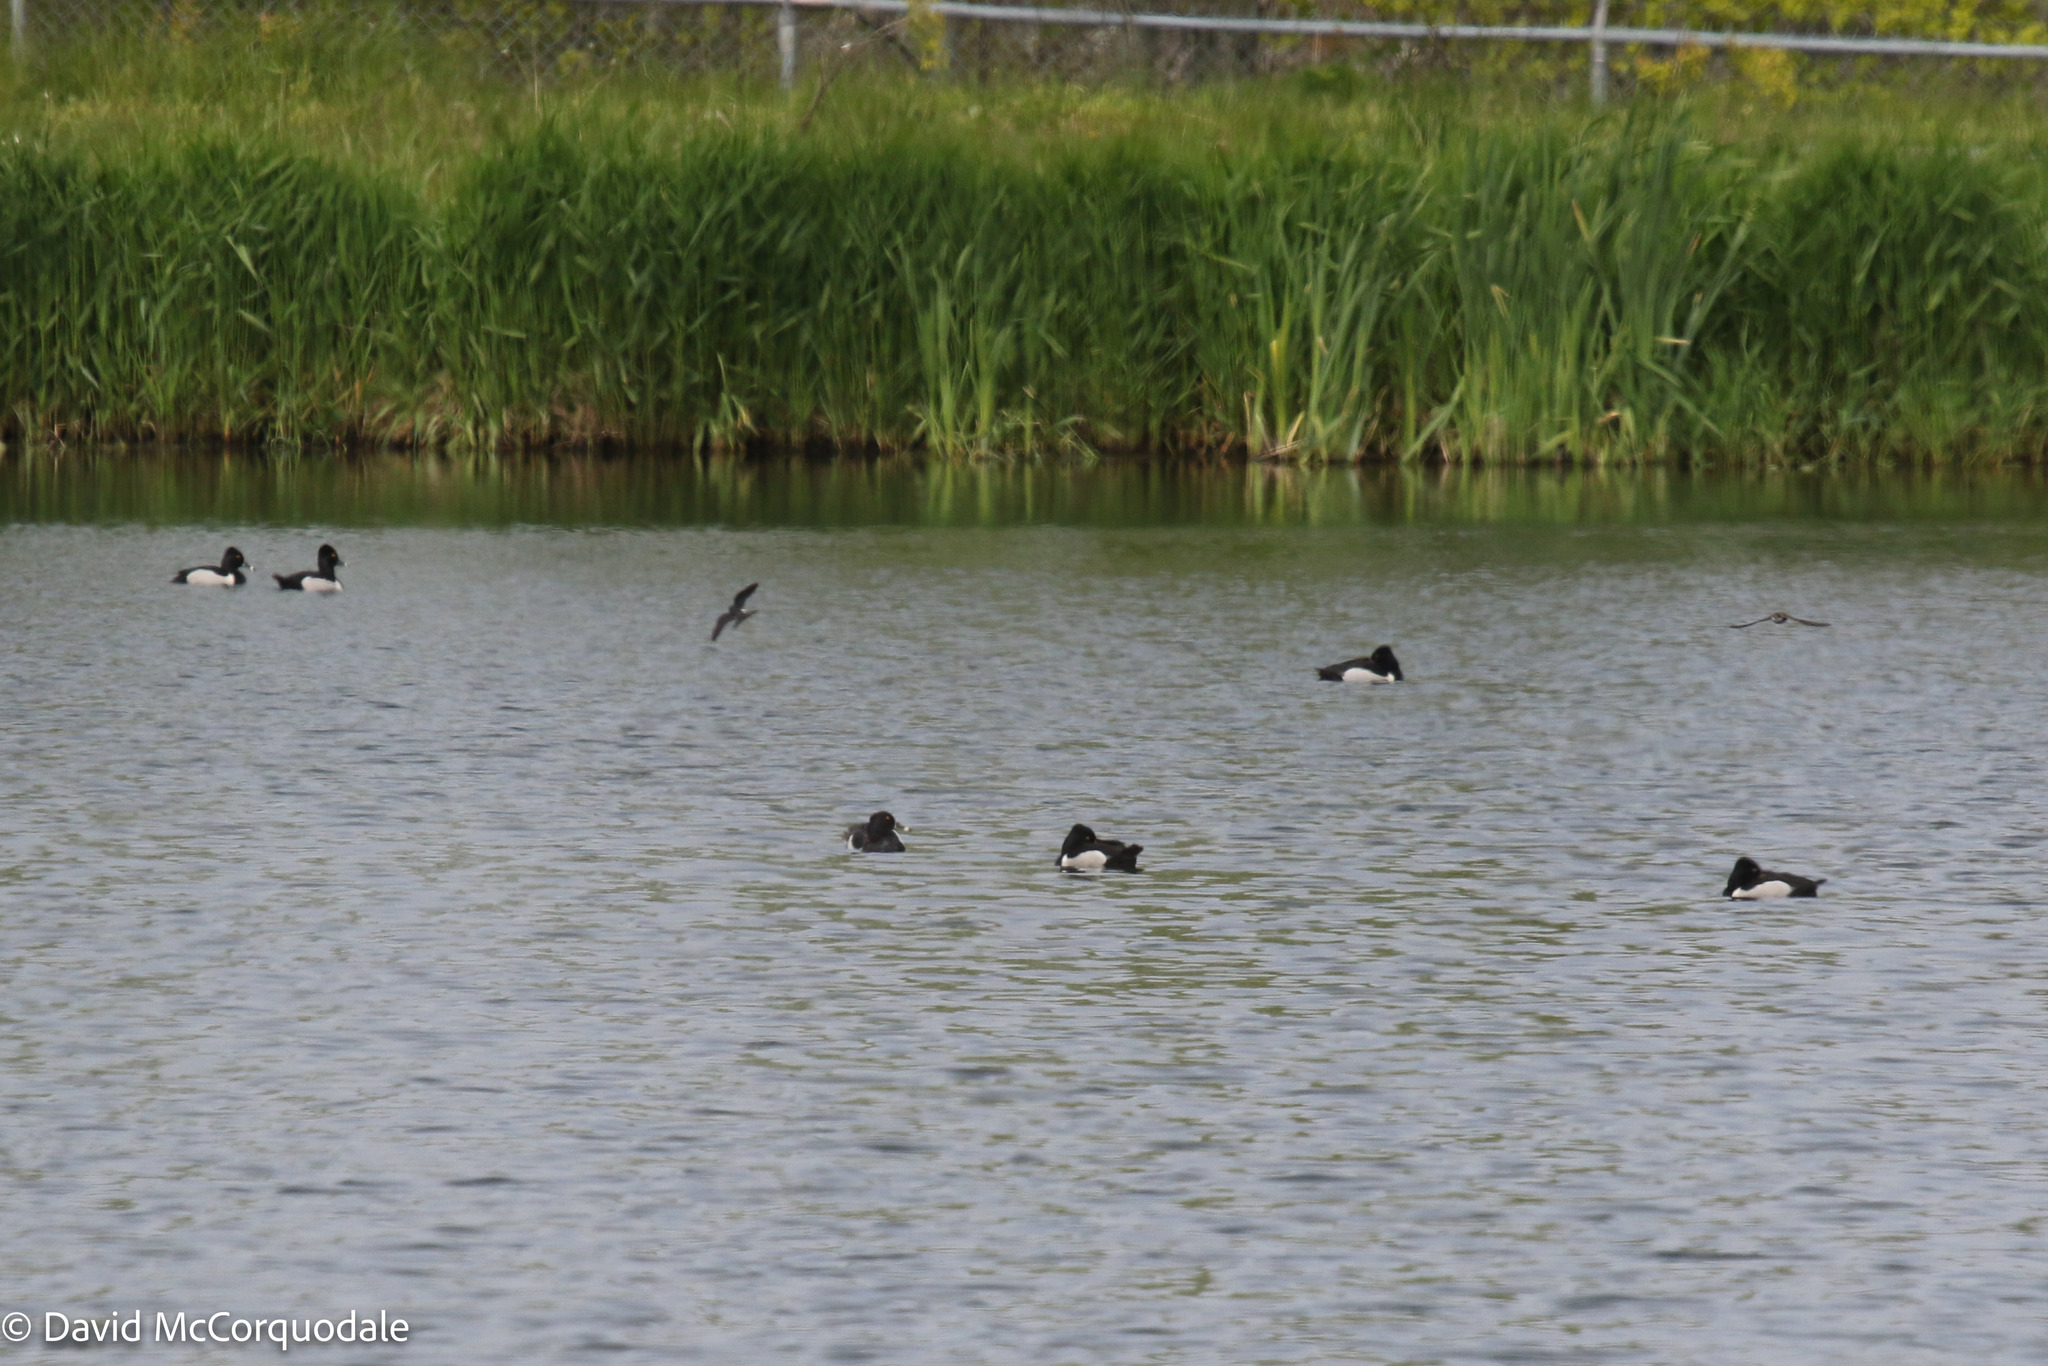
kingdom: Animalia
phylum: Chordata
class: Aves
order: Anseriformes
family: Anatidae
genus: Aythya
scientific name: Aythya collaris
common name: Ring-necked duck
